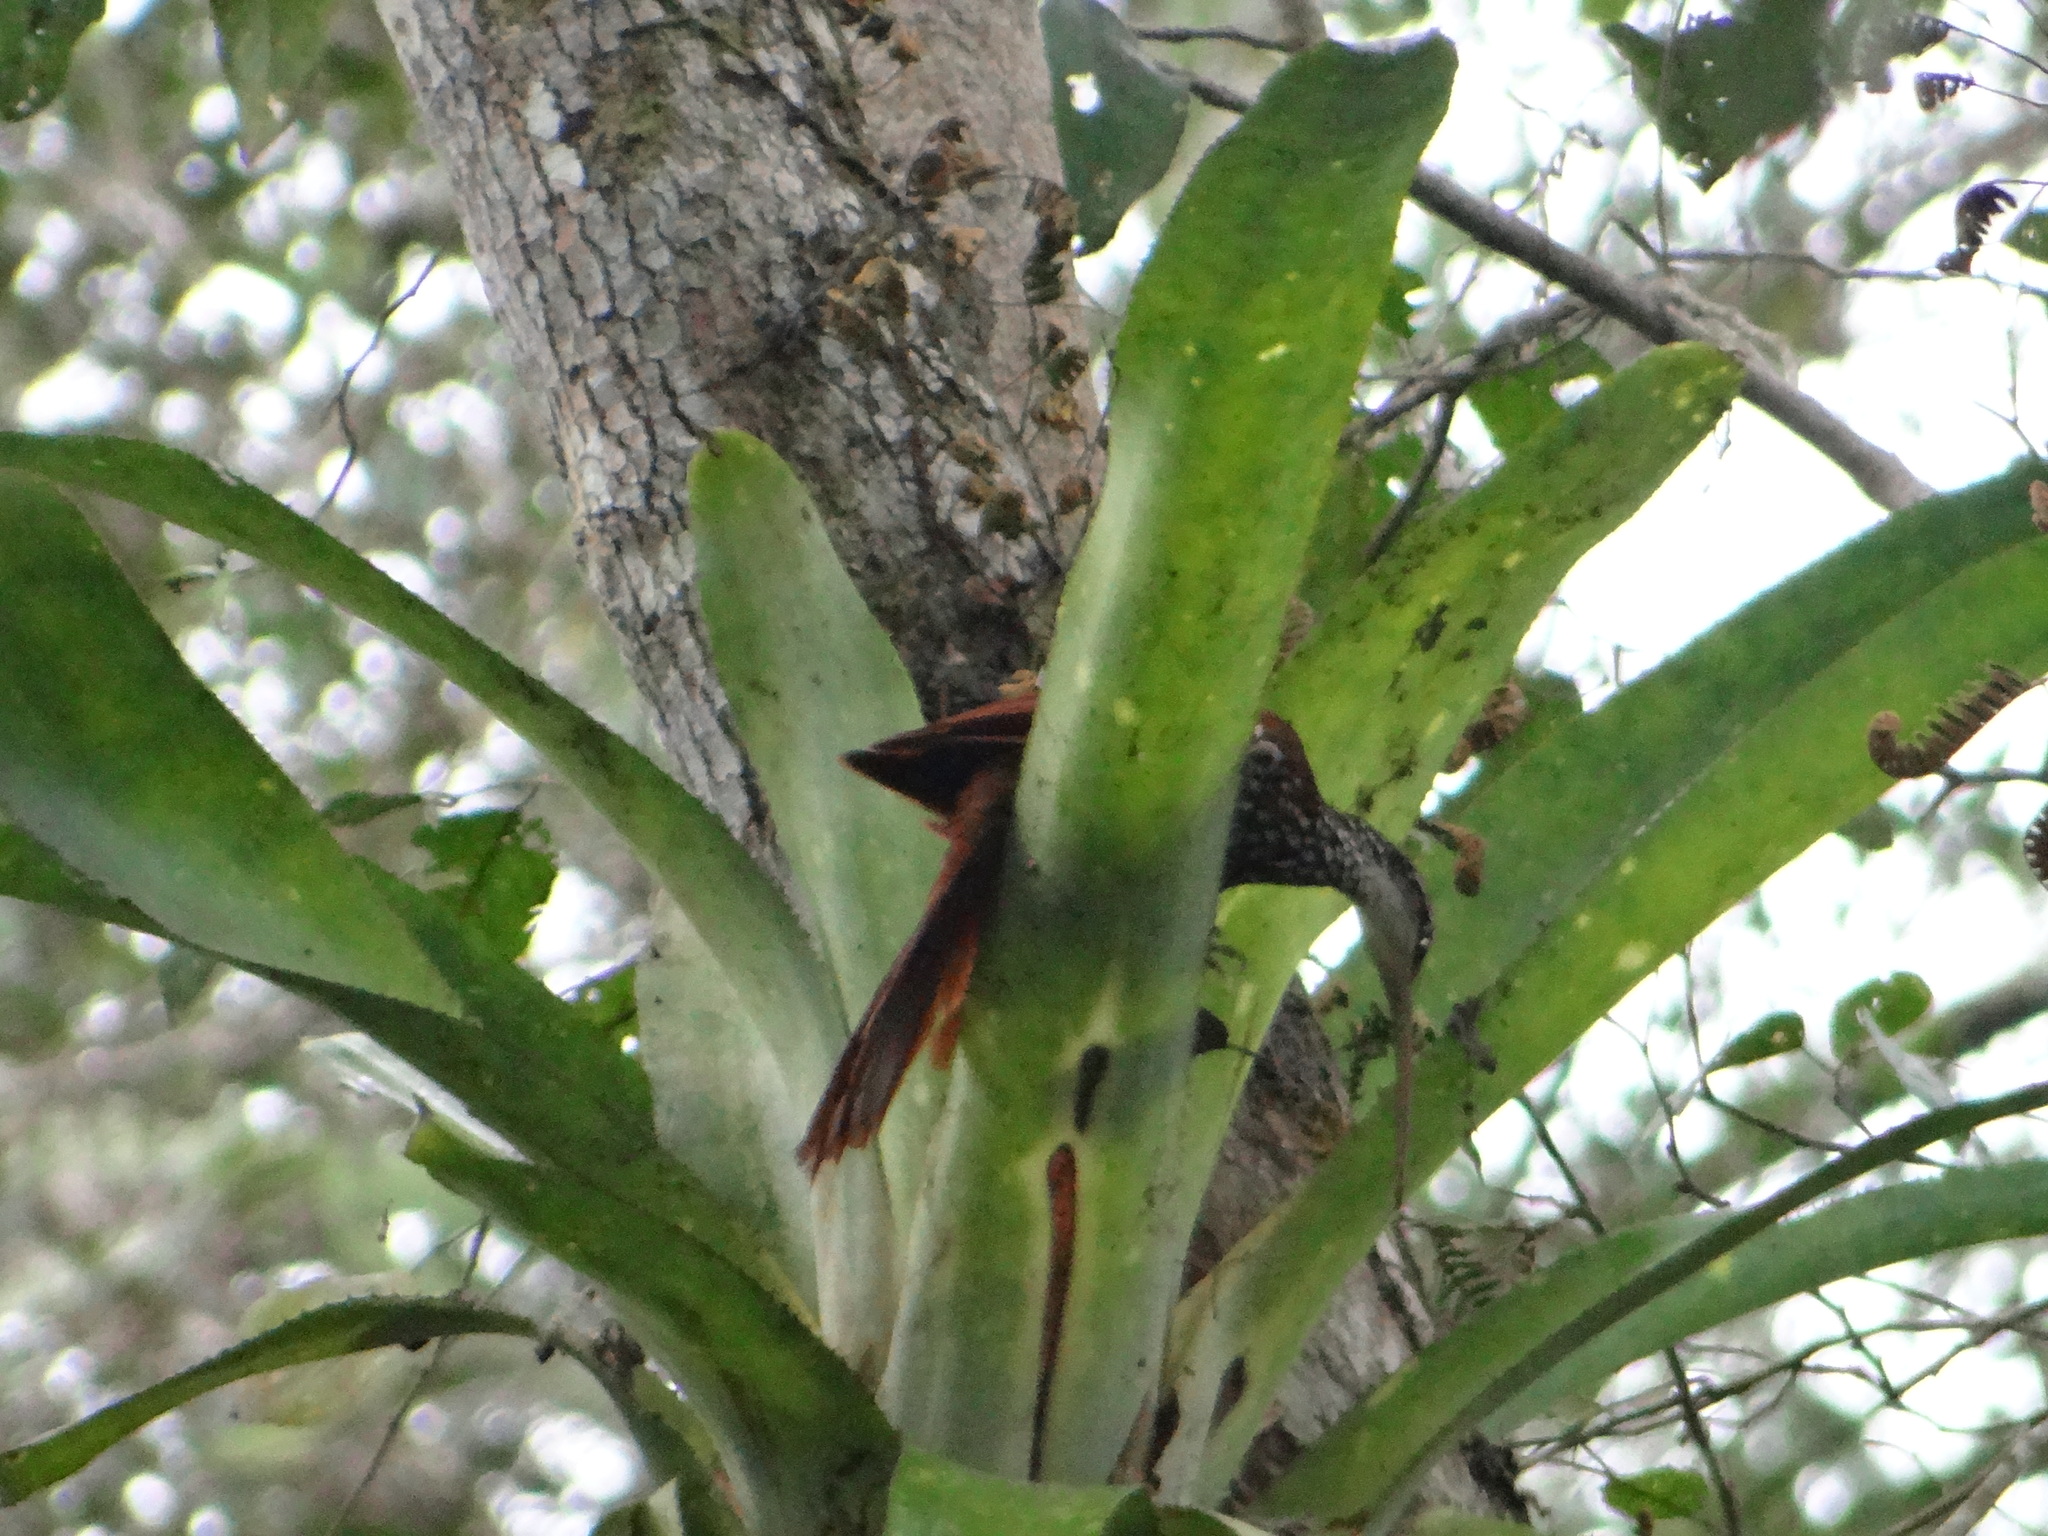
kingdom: Animalia
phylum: Chordata
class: Aves
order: Passeriformes
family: Furnariidae
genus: Nasica
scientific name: Nasica longirostris
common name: Long-billed woodcreeper
